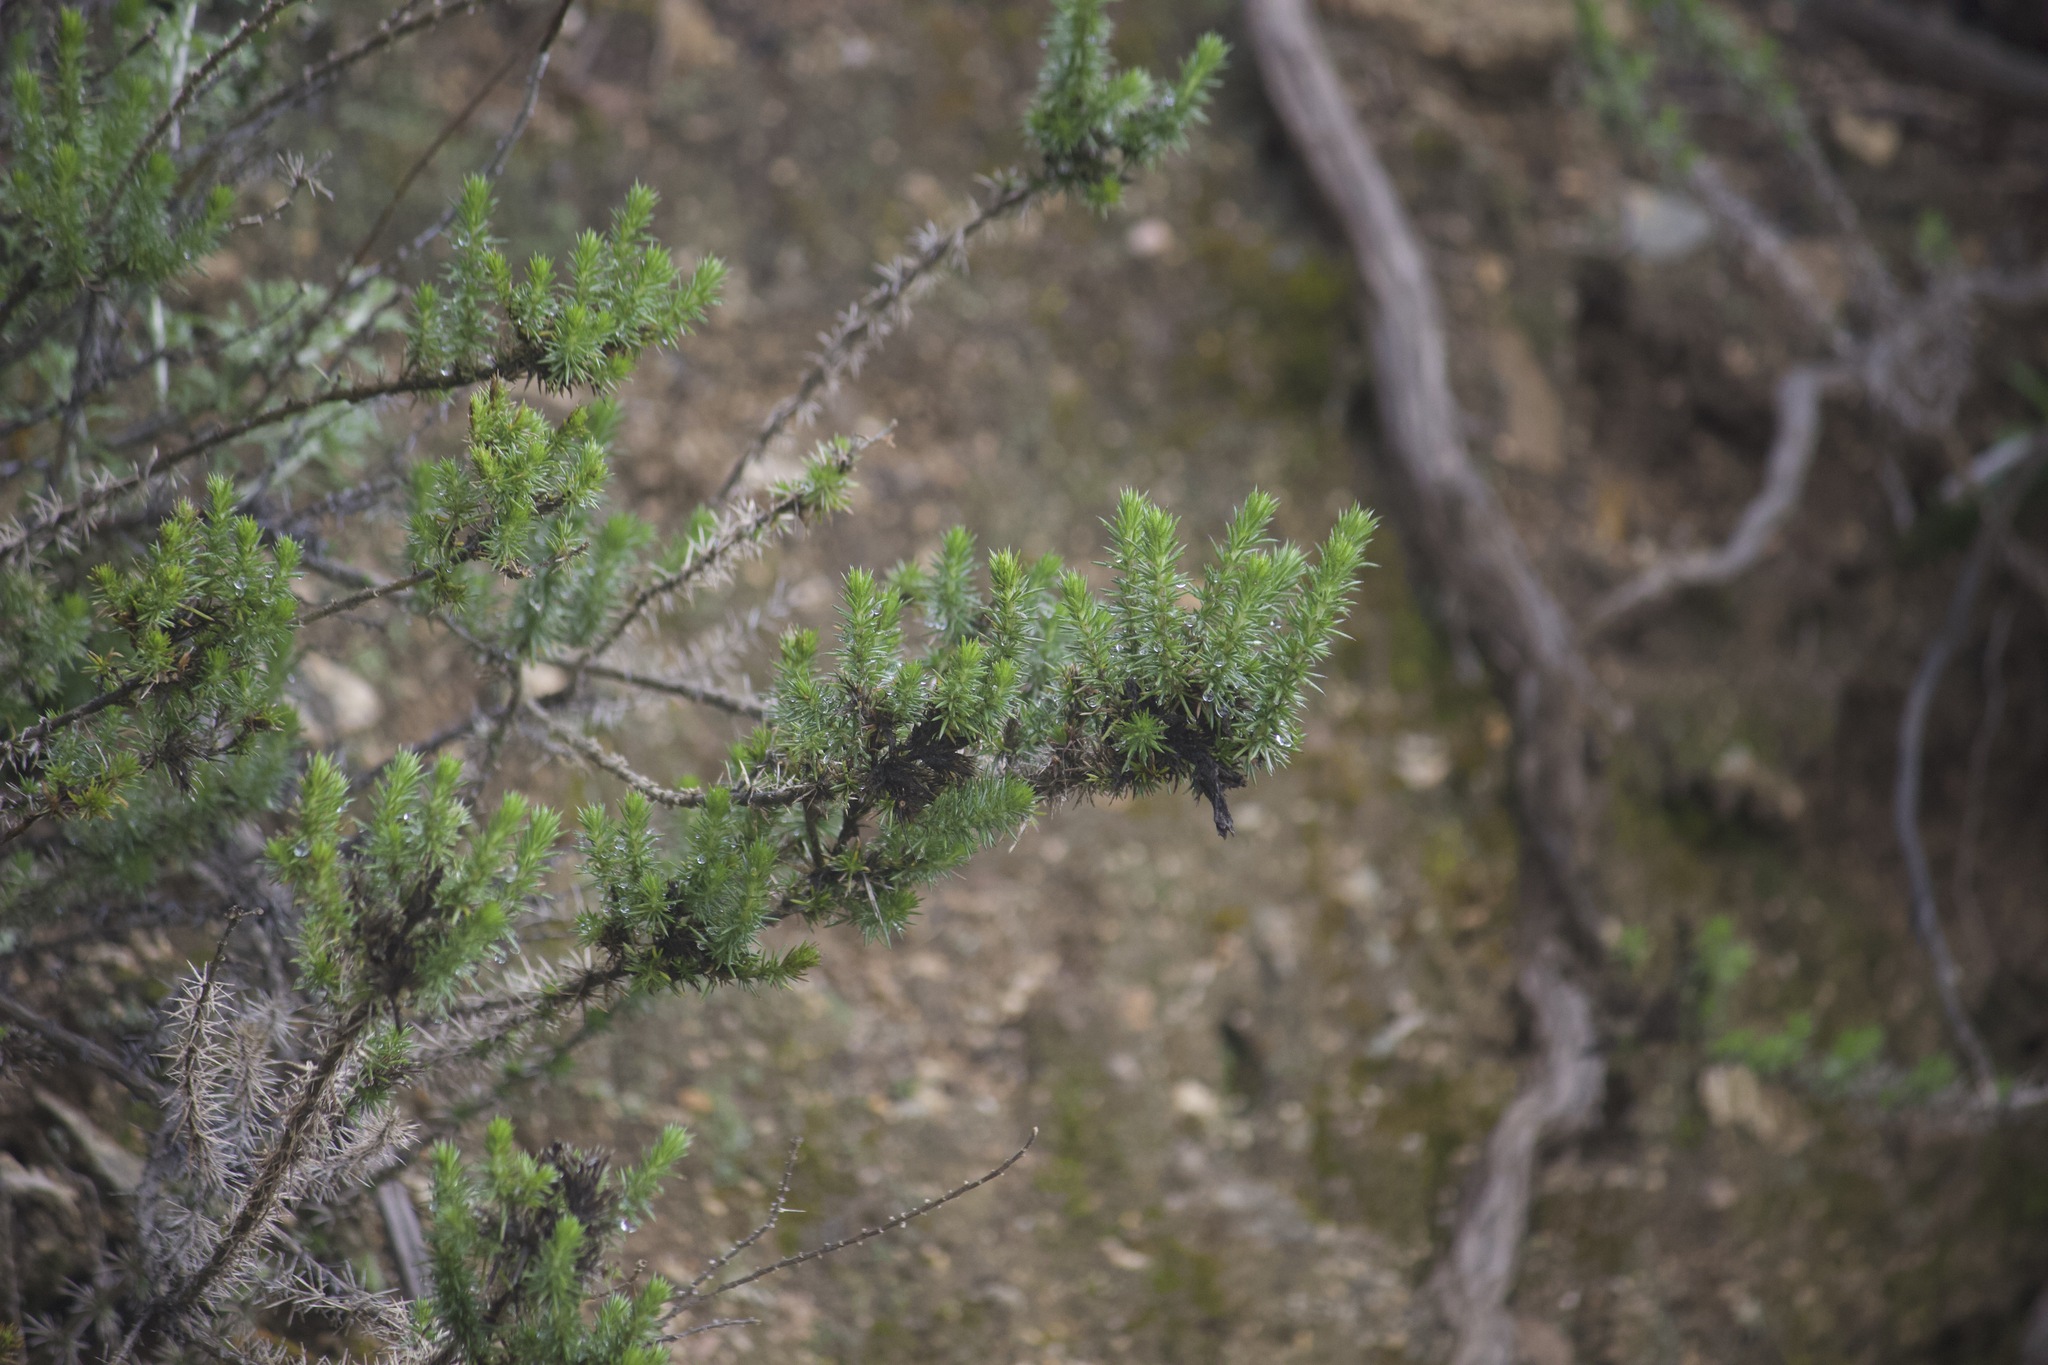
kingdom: Plantae
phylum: Tracheophyta
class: Magnoliopsida
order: Ericales
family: Polemoniaceae
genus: Linanthus
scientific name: Linanthus californicus
